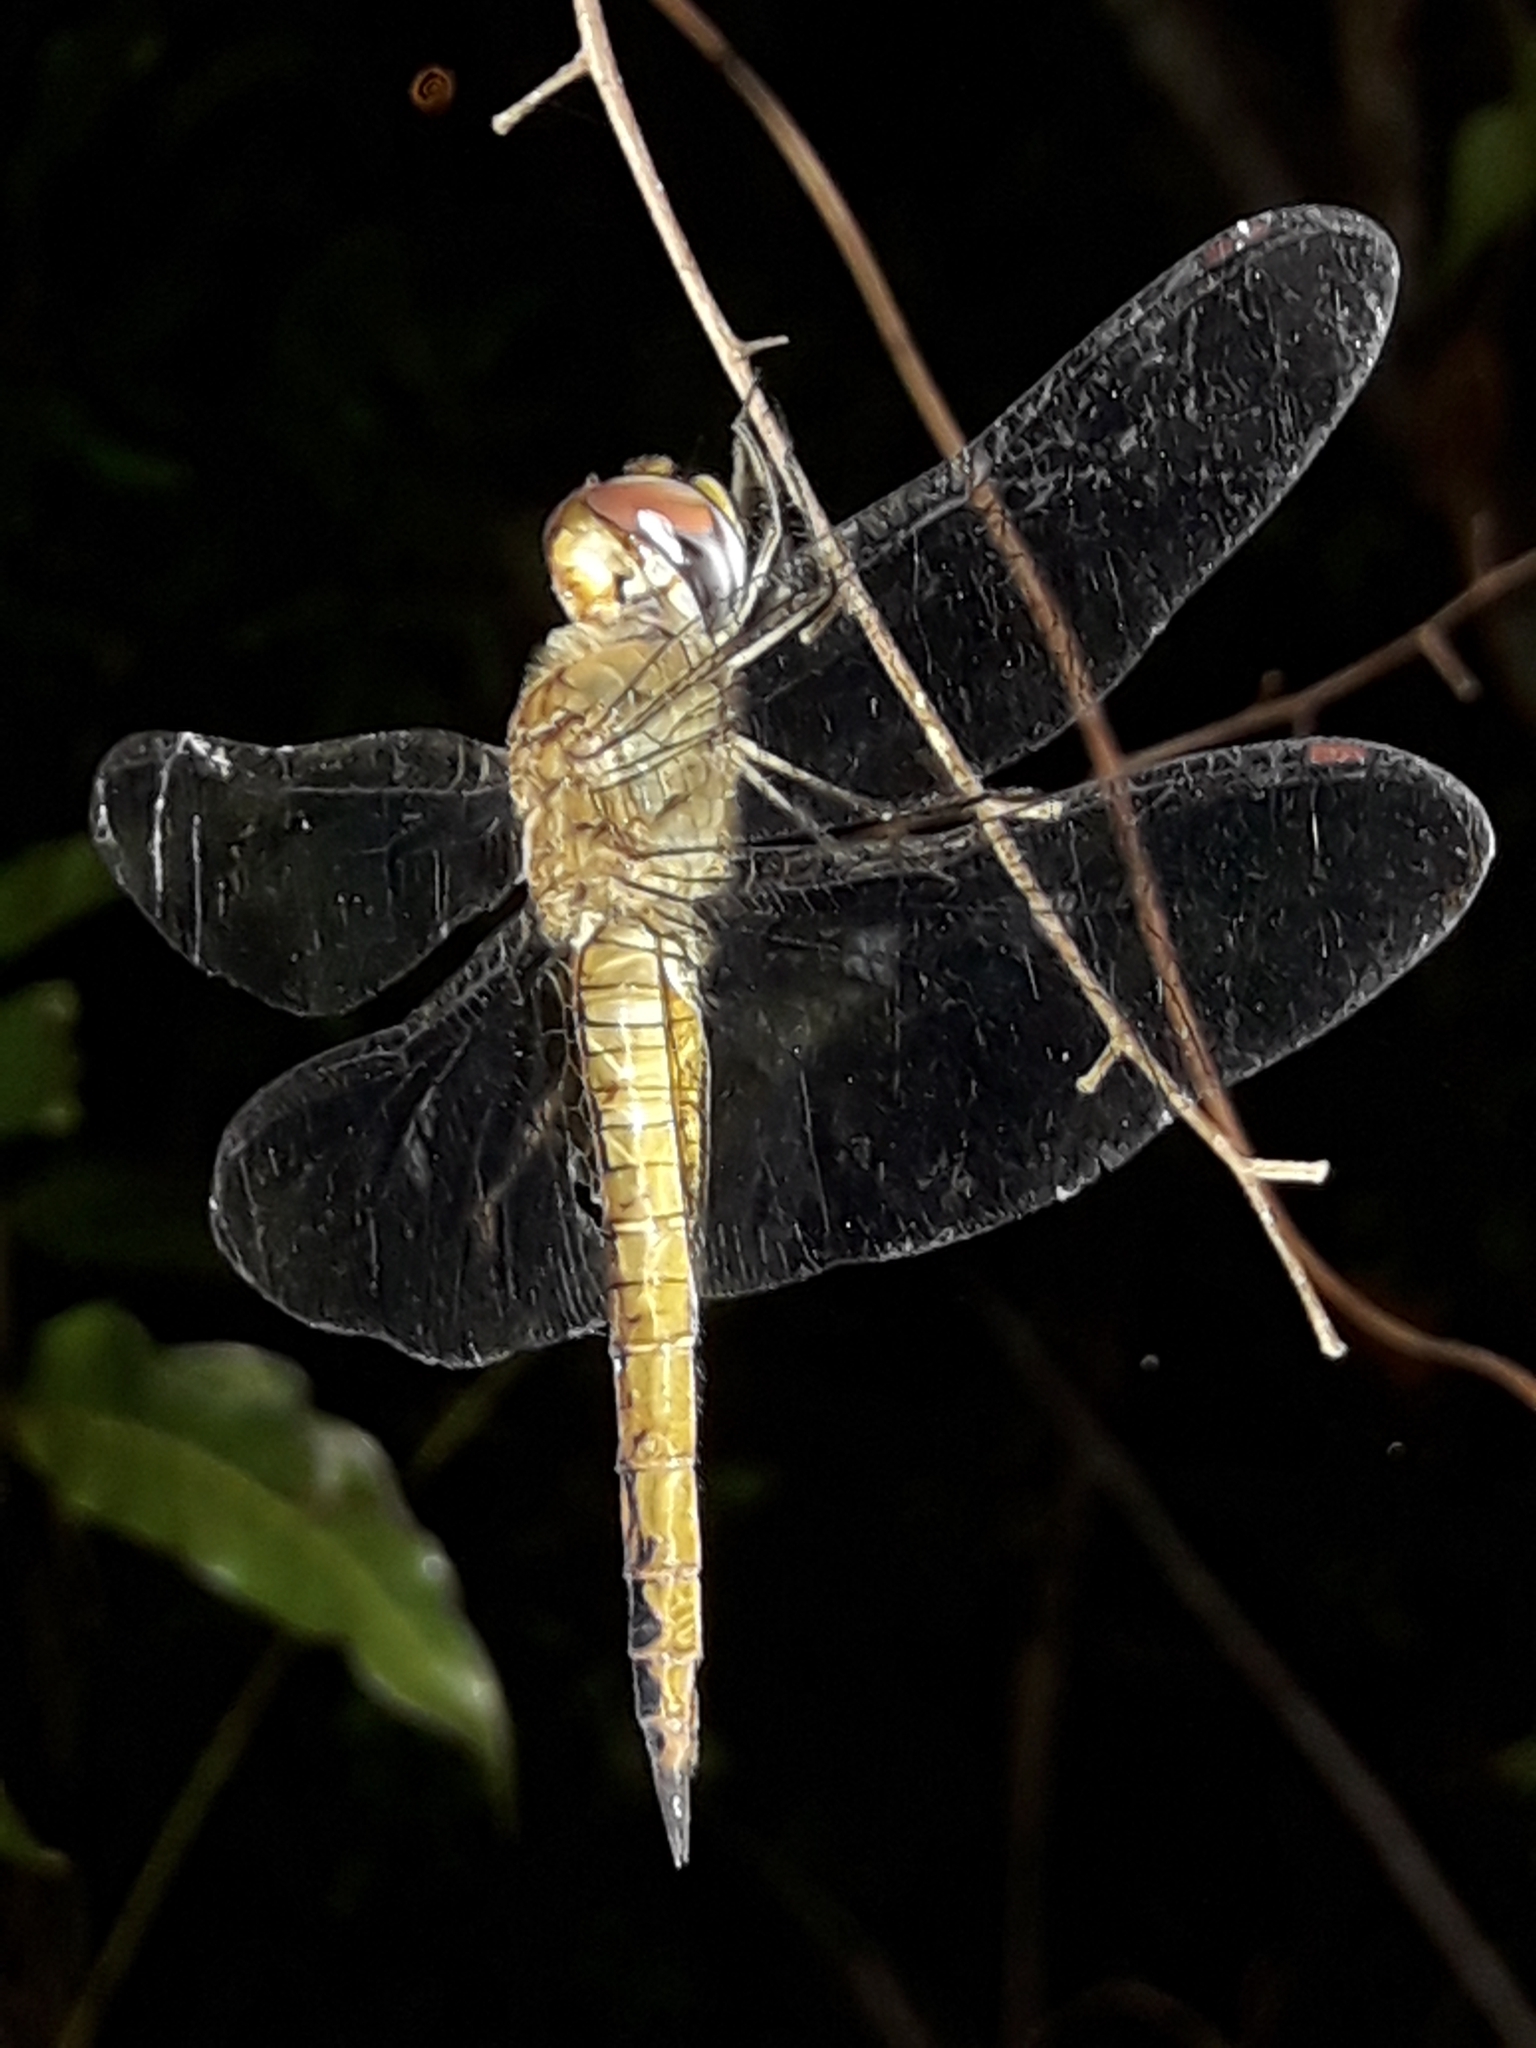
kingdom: Animalia
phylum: Arthropoda
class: Insecta
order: Odonata
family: Libellulidae
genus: Pantala
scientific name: Pantala flavescens
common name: Wandering glider
